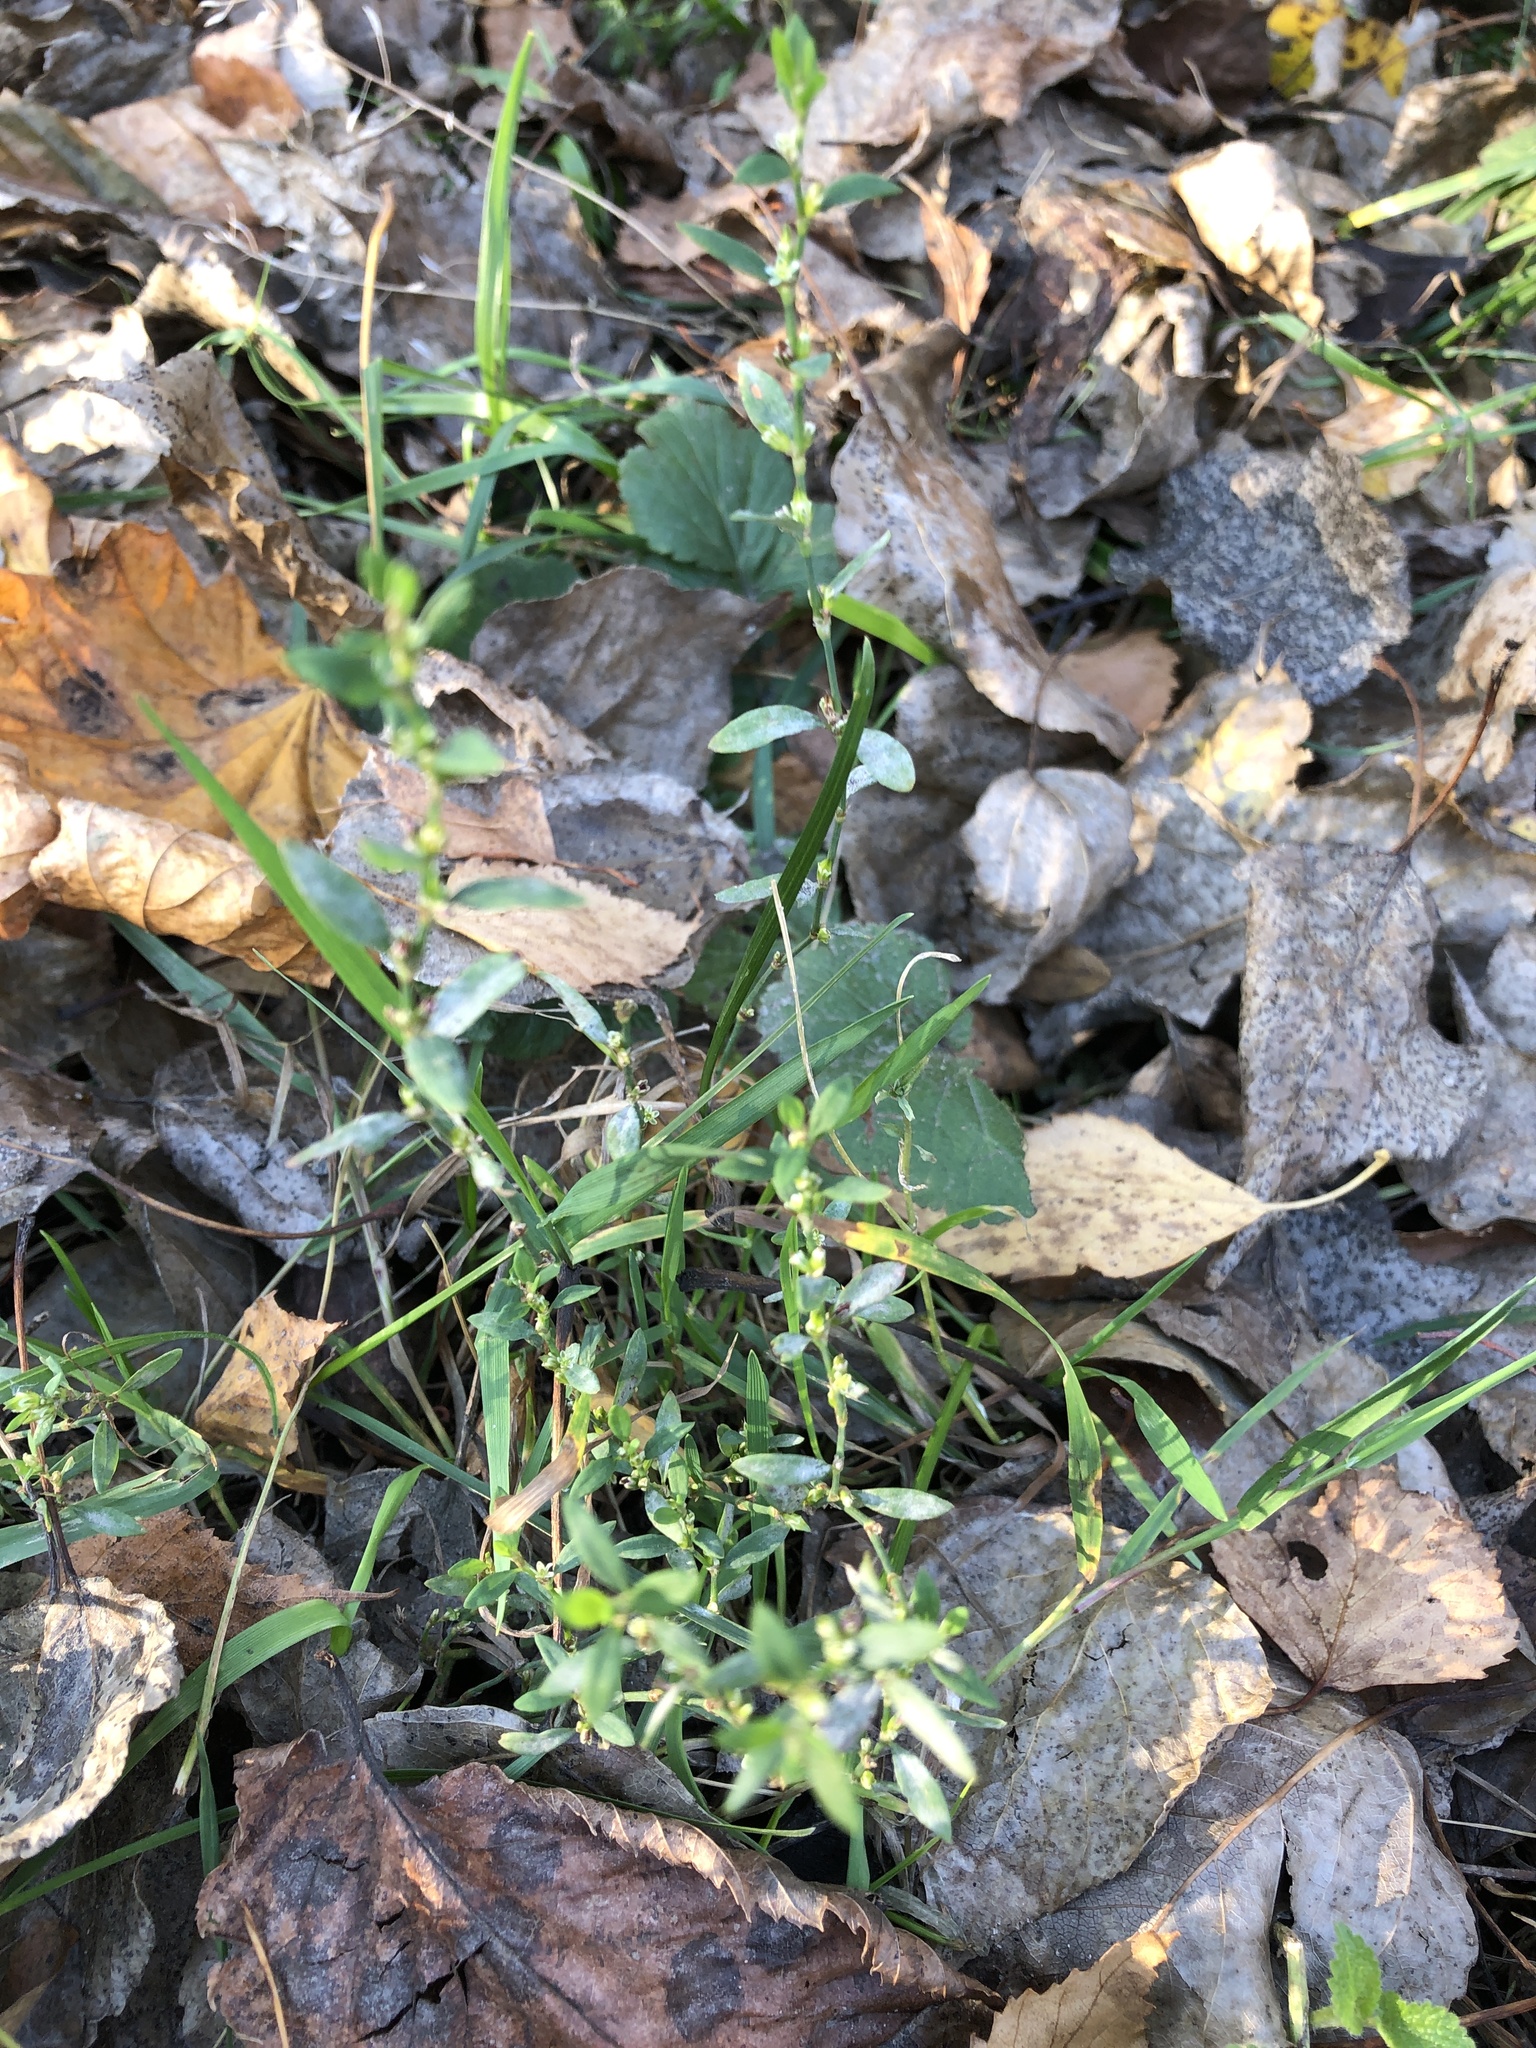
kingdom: Plantae
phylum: Tracheophyta
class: Magnoliopsida
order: Caryophyllales
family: Polygonaceae
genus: Polygonum
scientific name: Polygonum
